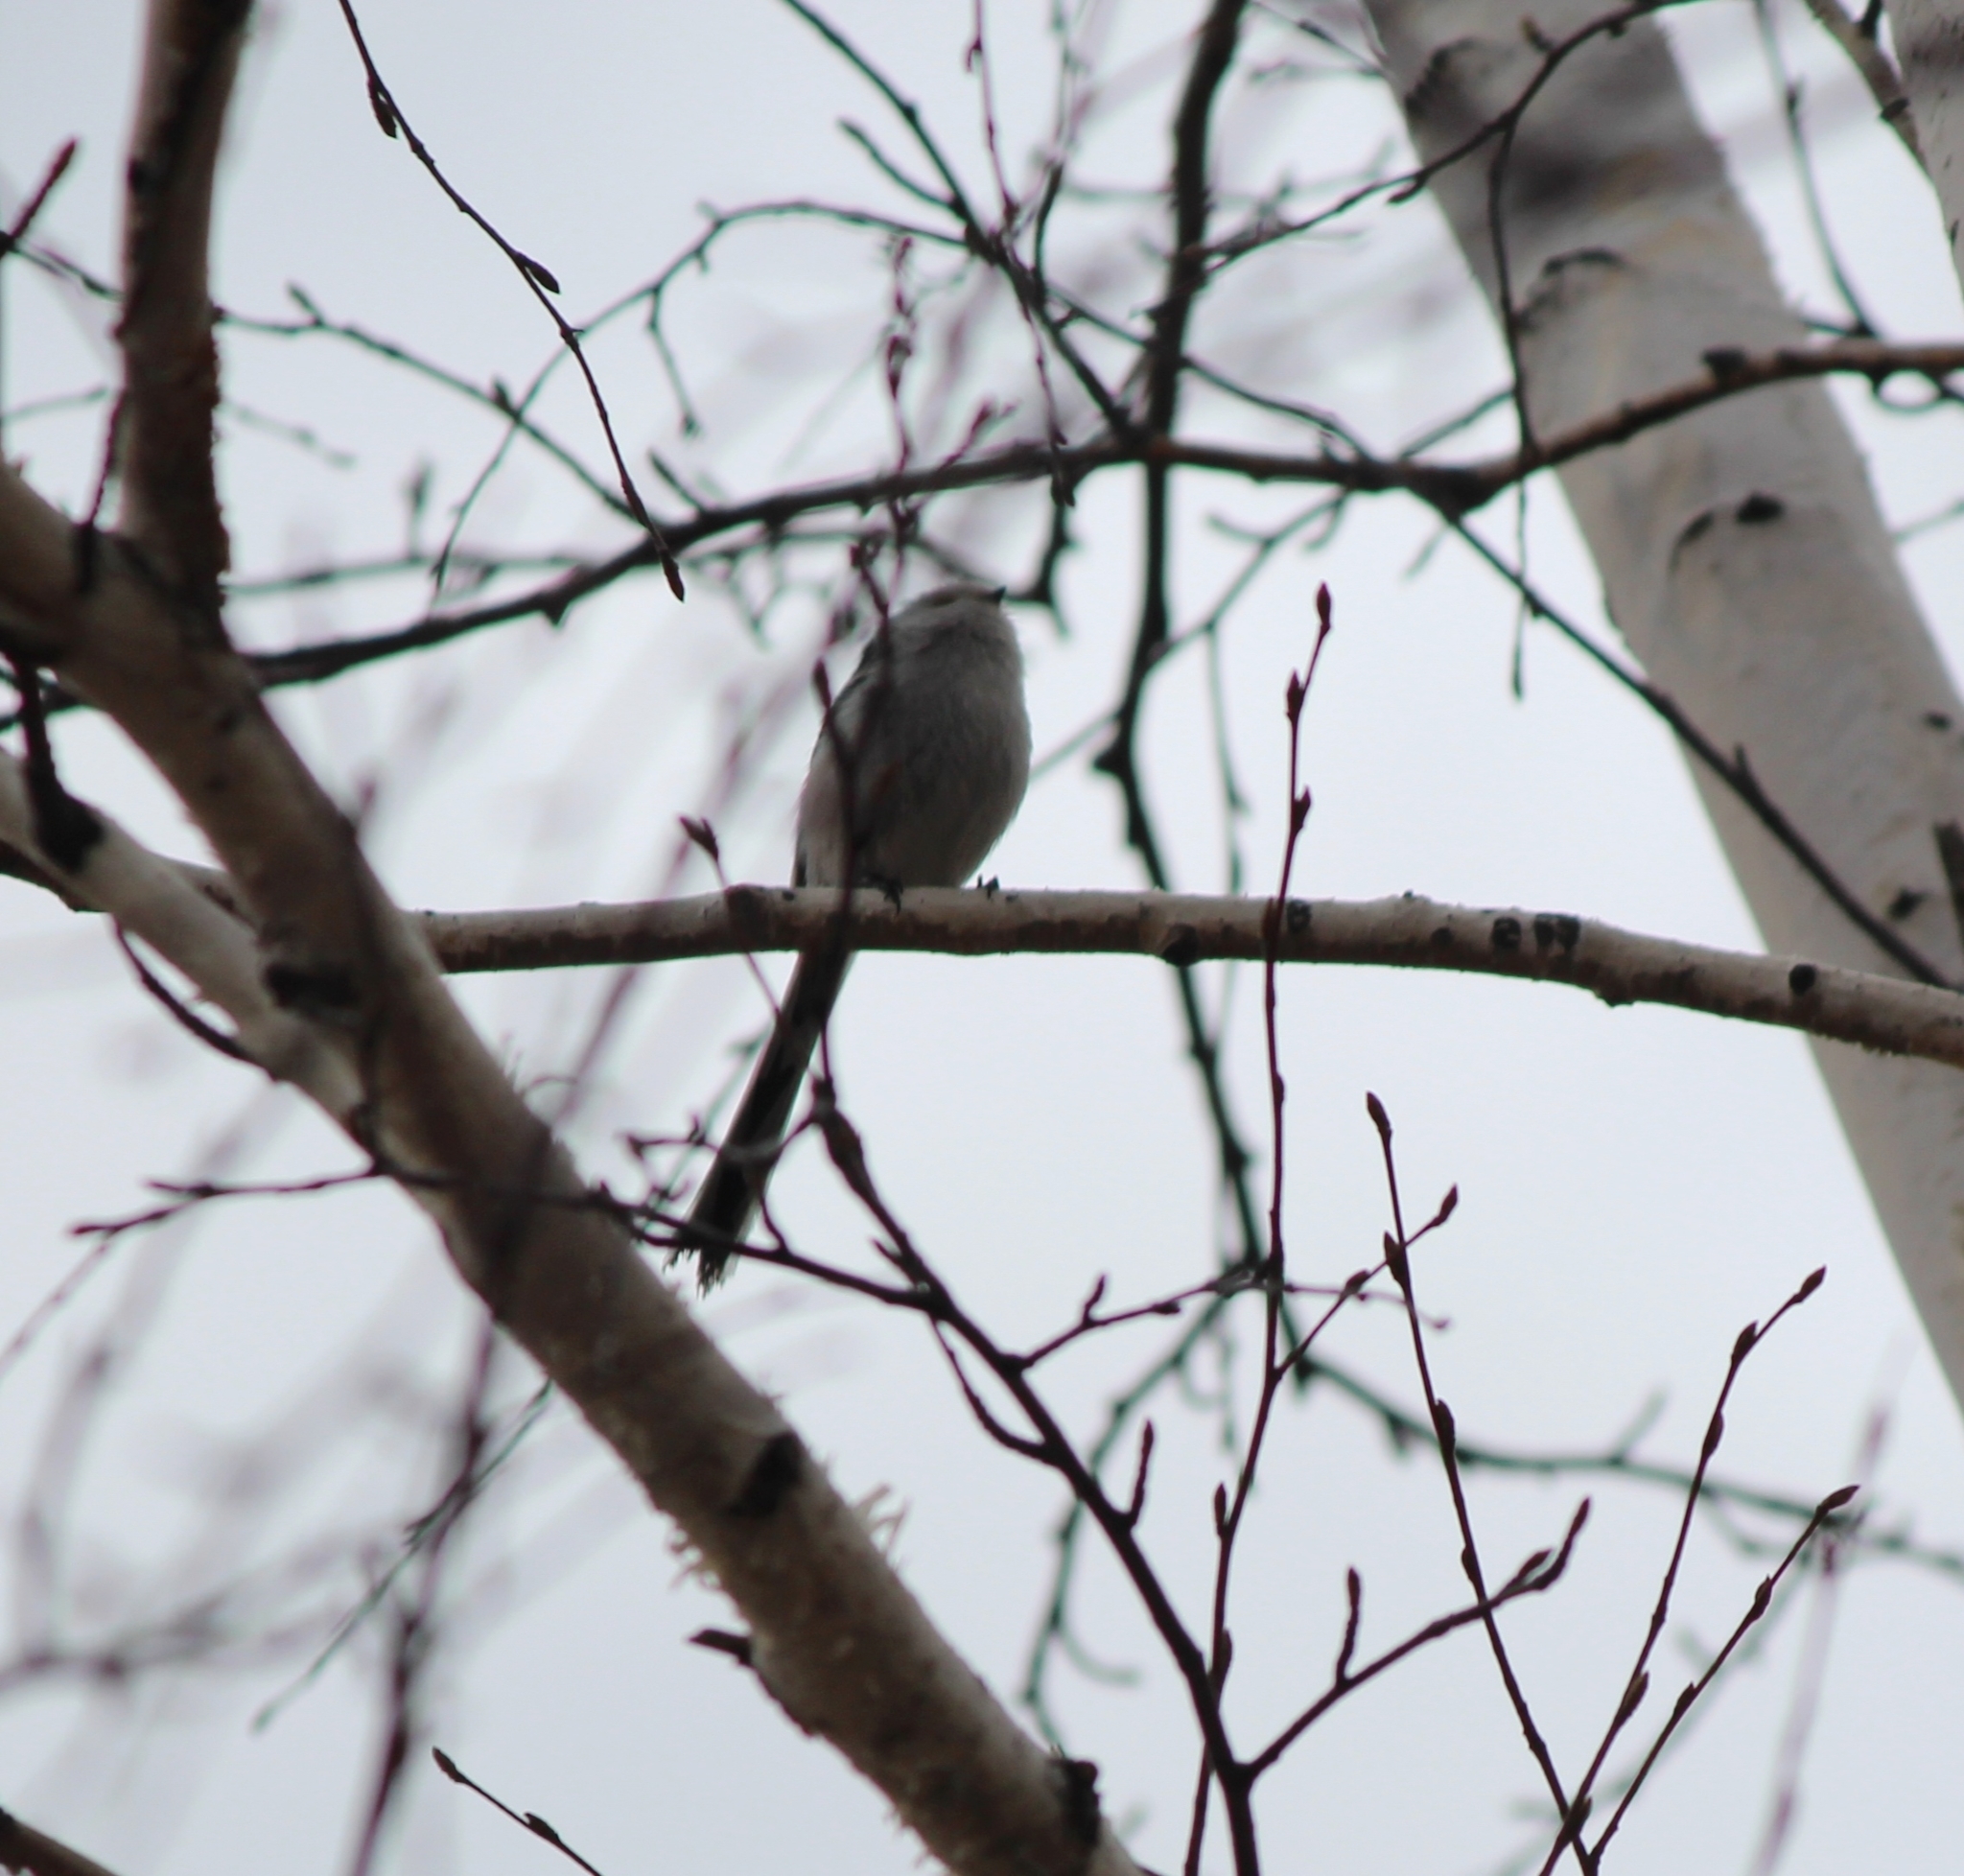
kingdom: Animalia
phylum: Chordata
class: Aves
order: Passeriformes
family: Aegithalidae
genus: Aegithalos
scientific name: Aegithalos caudatus
